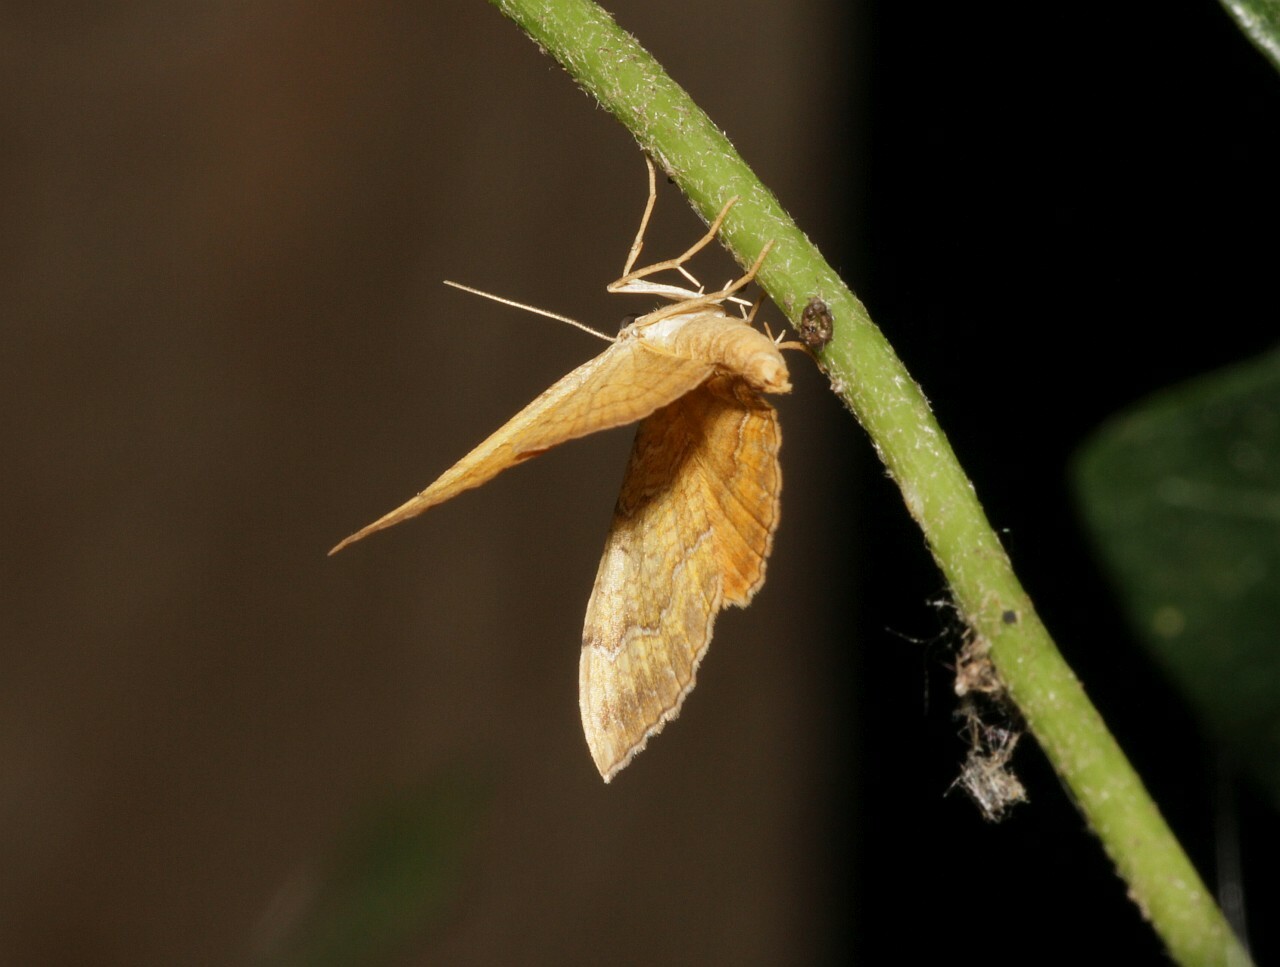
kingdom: Animalia
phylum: Arthropoda
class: Insecta
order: Lepidoptera
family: Geometridae
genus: Camptogramma
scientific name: Camptogramma bilineata
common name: Yellow shell
